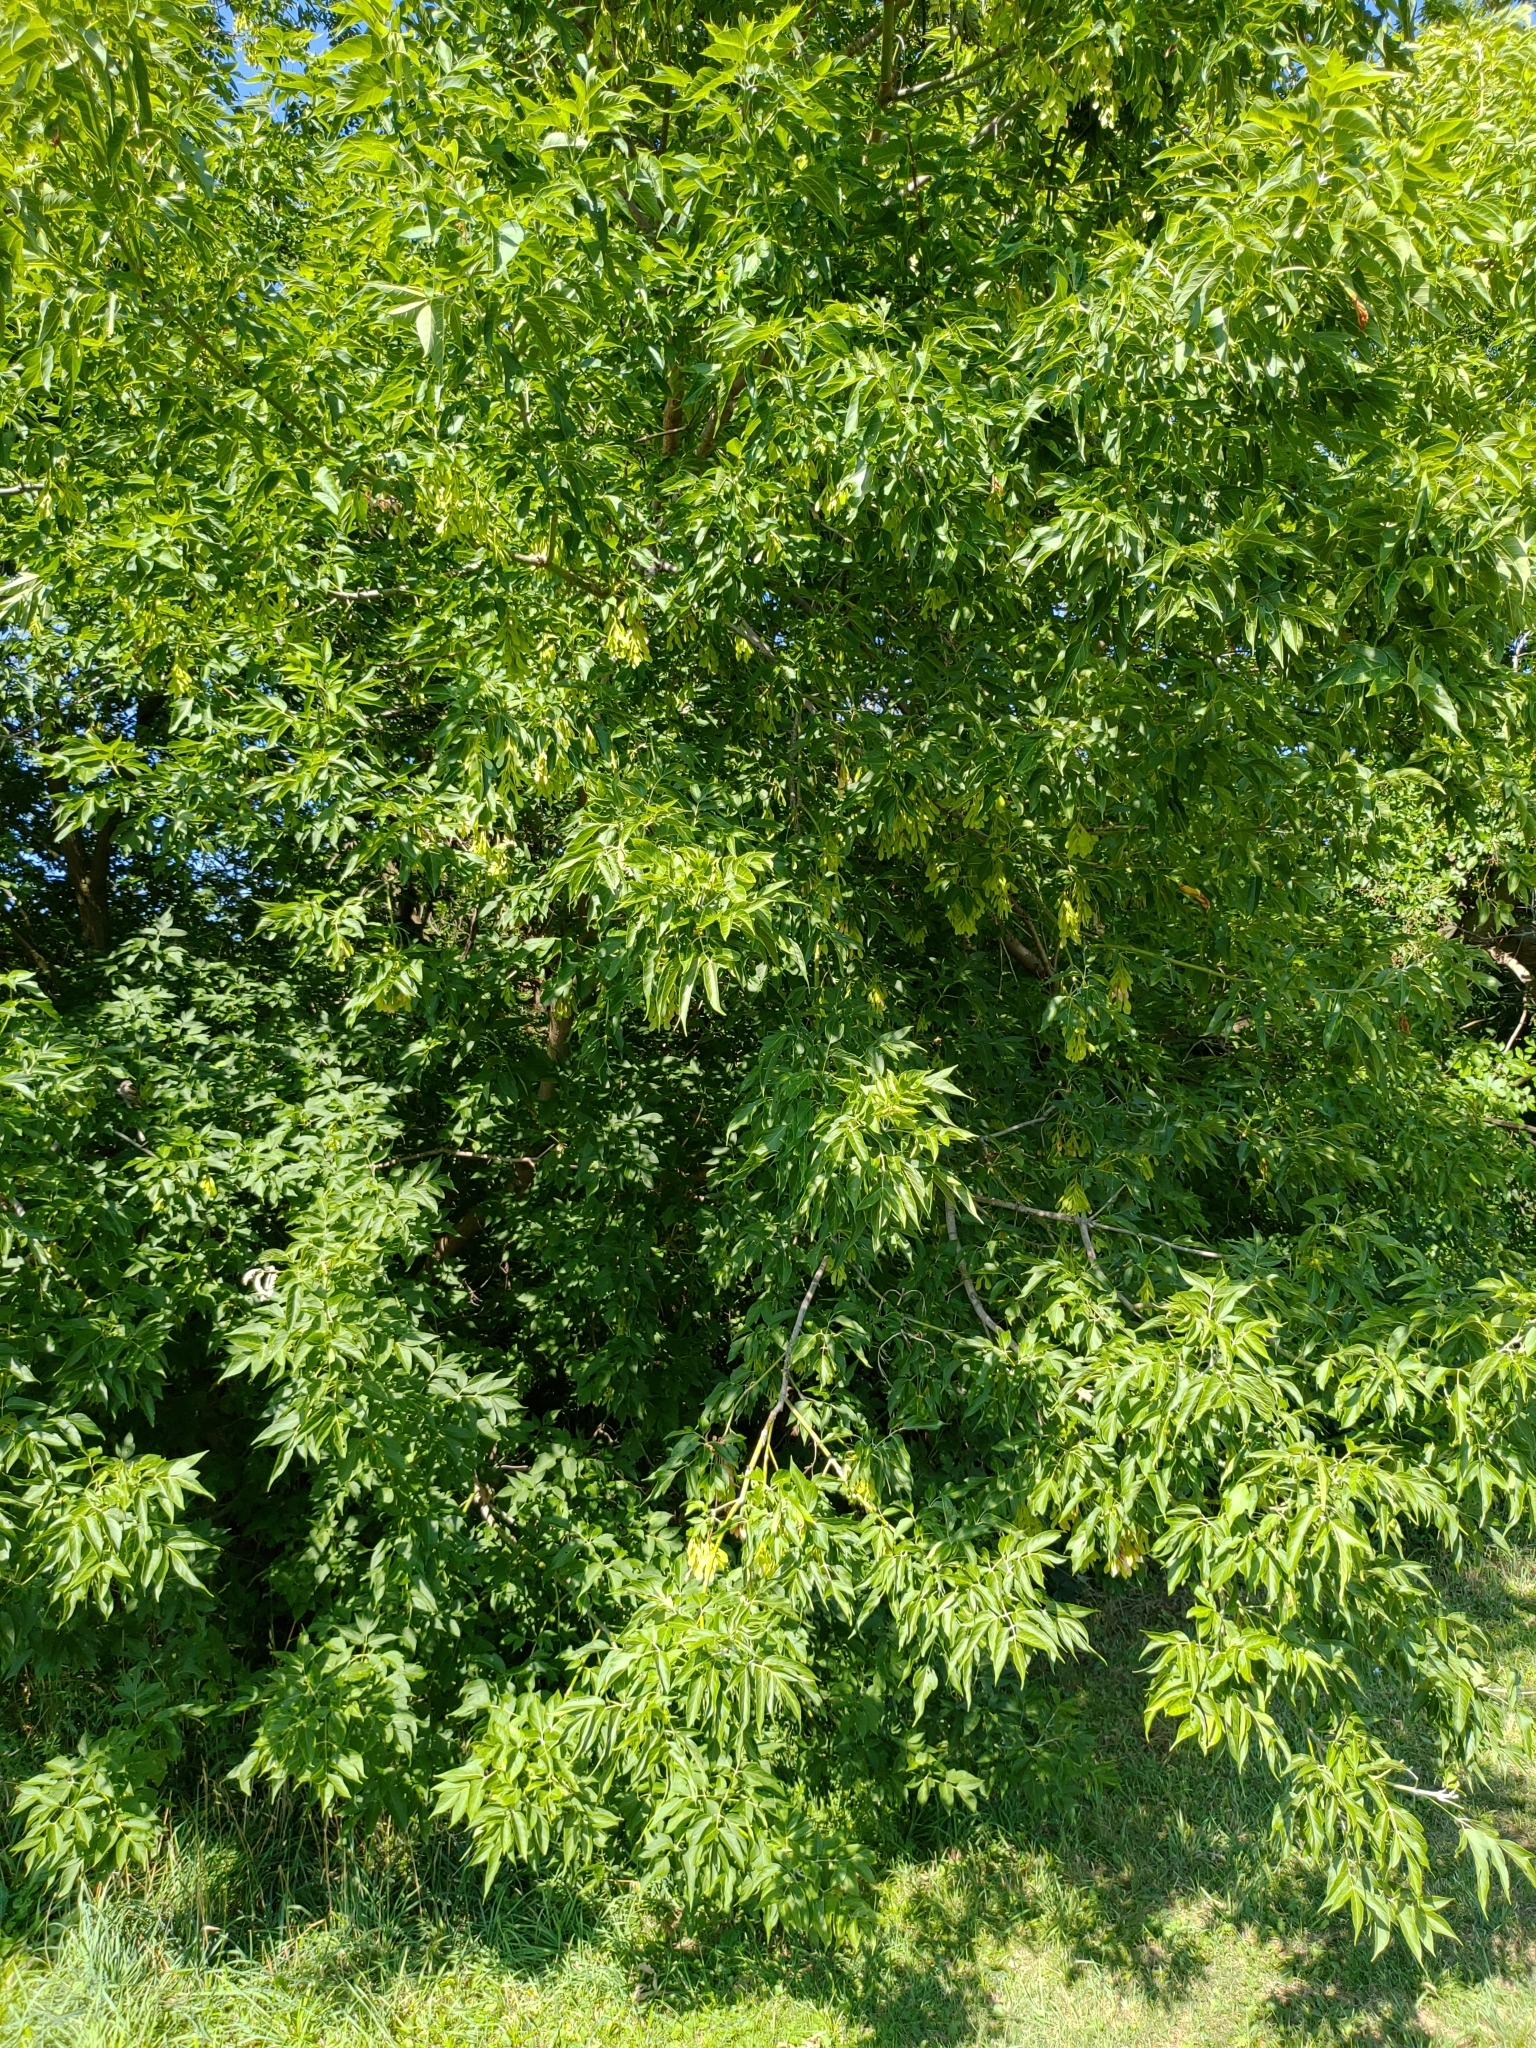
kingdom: Plantae
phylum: Tracheophyta
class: Magnoliopsida
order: Sapindales
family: Sapindaceae
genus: Acer
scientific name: Acer negundo
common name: Ashleaf maple
